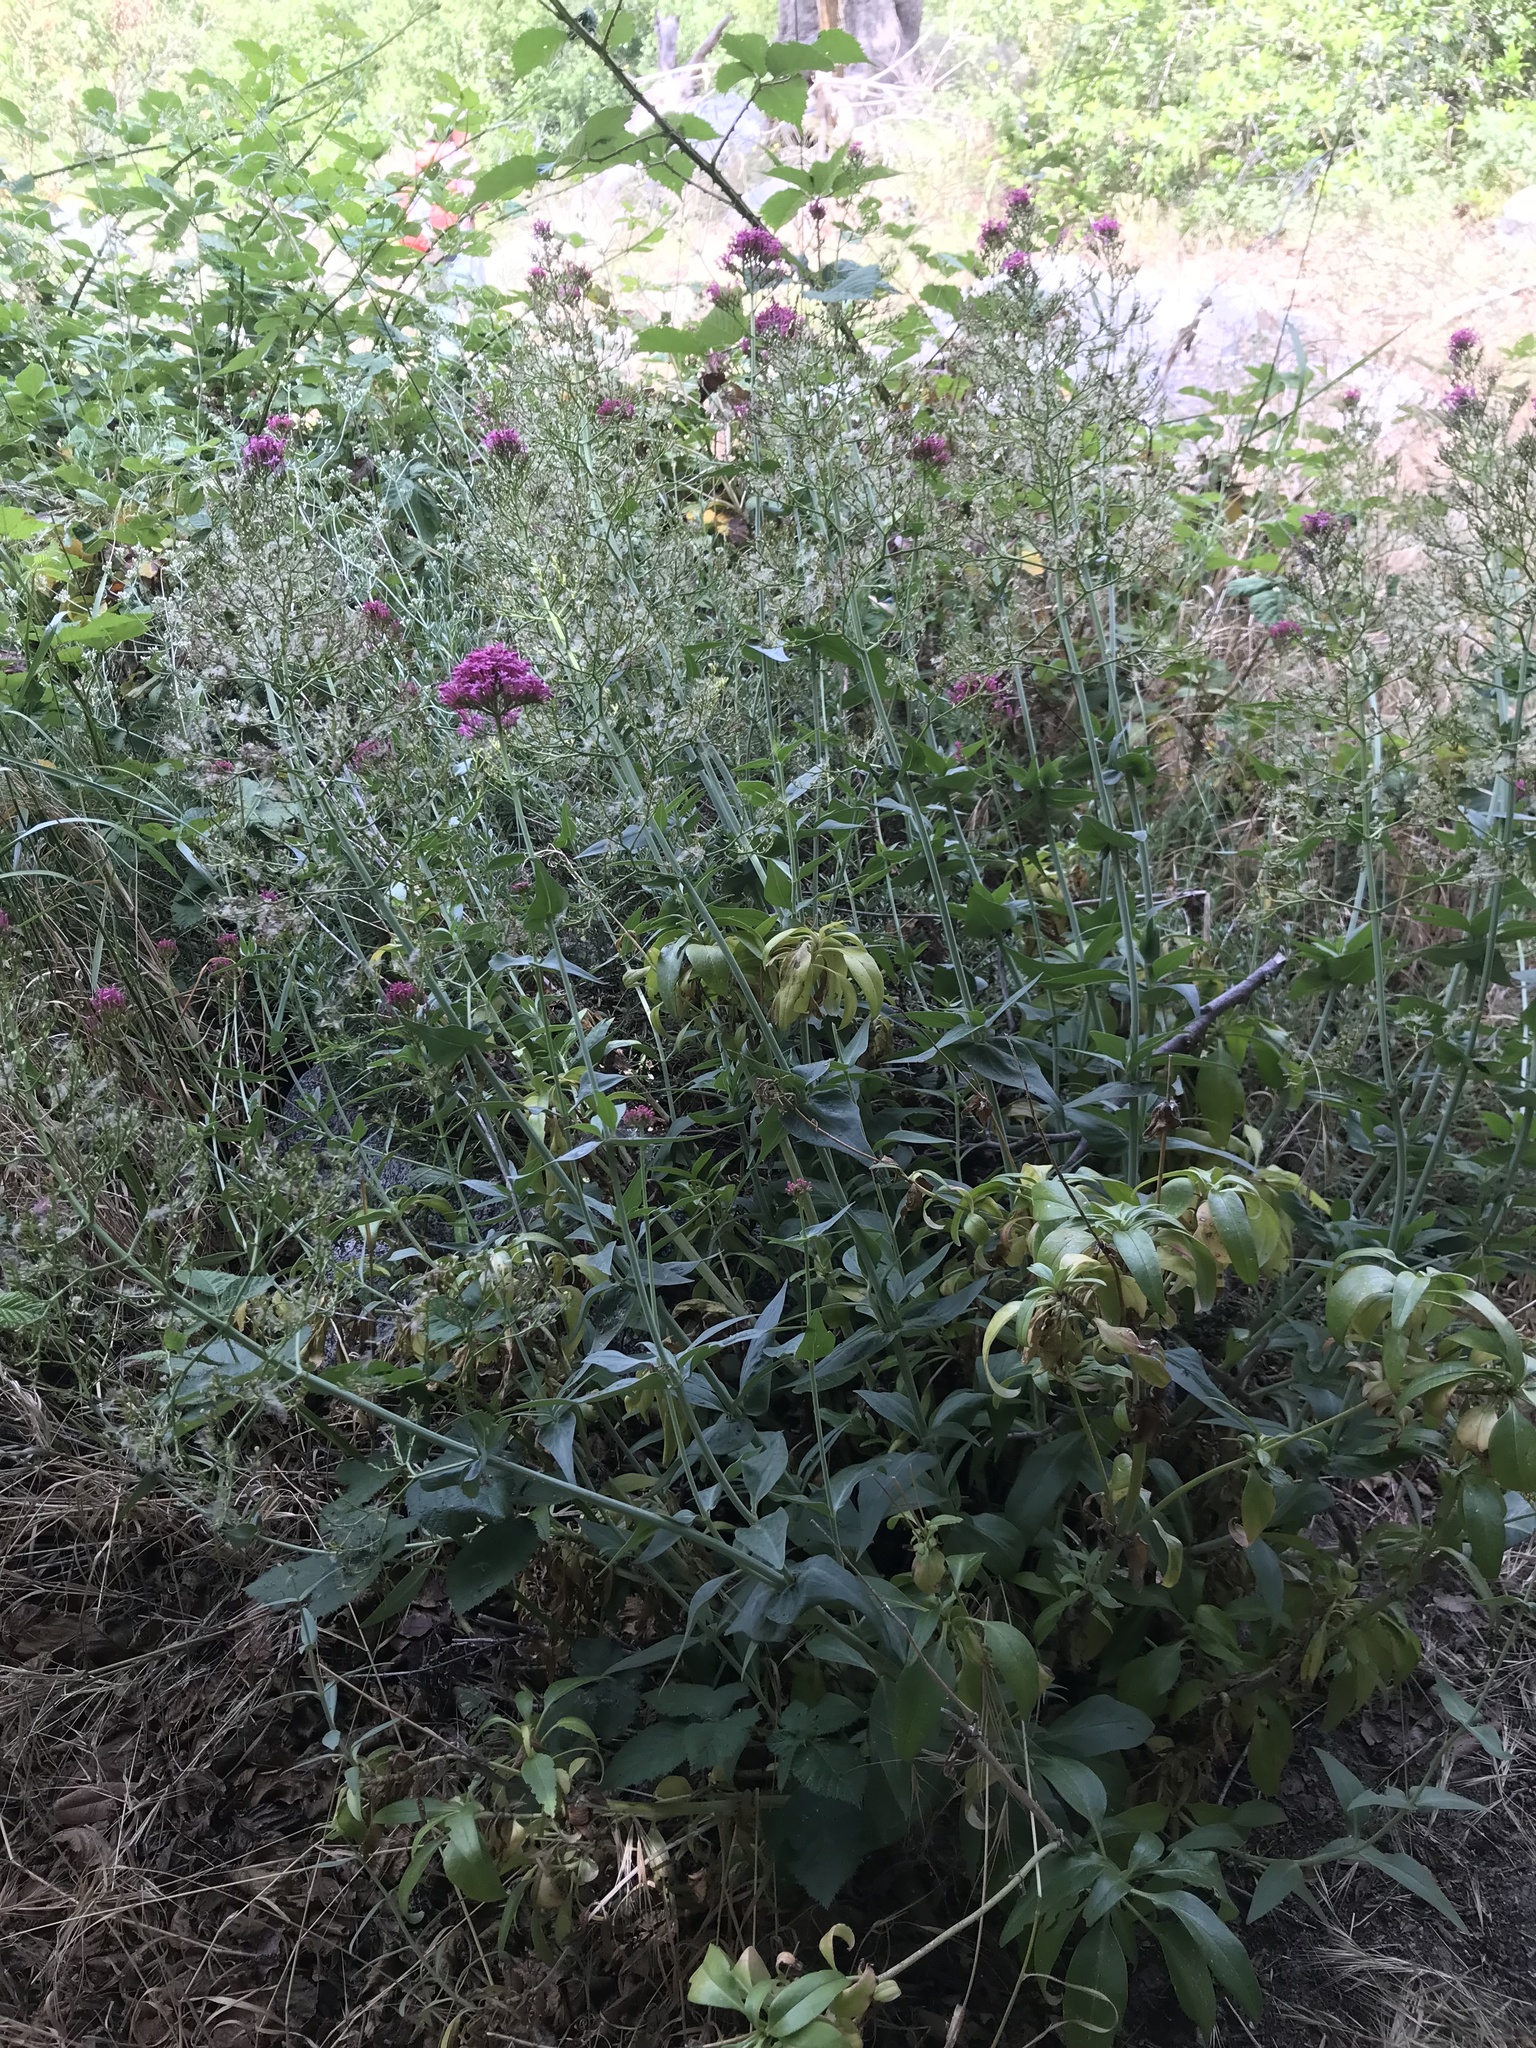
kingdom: Plantae
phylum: Tracheophyta
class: Magnoliopsida
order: Dipsacales
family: Caprifoliaceae
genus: Centranthus
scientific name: Centranthus ruber
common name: Red valerian
